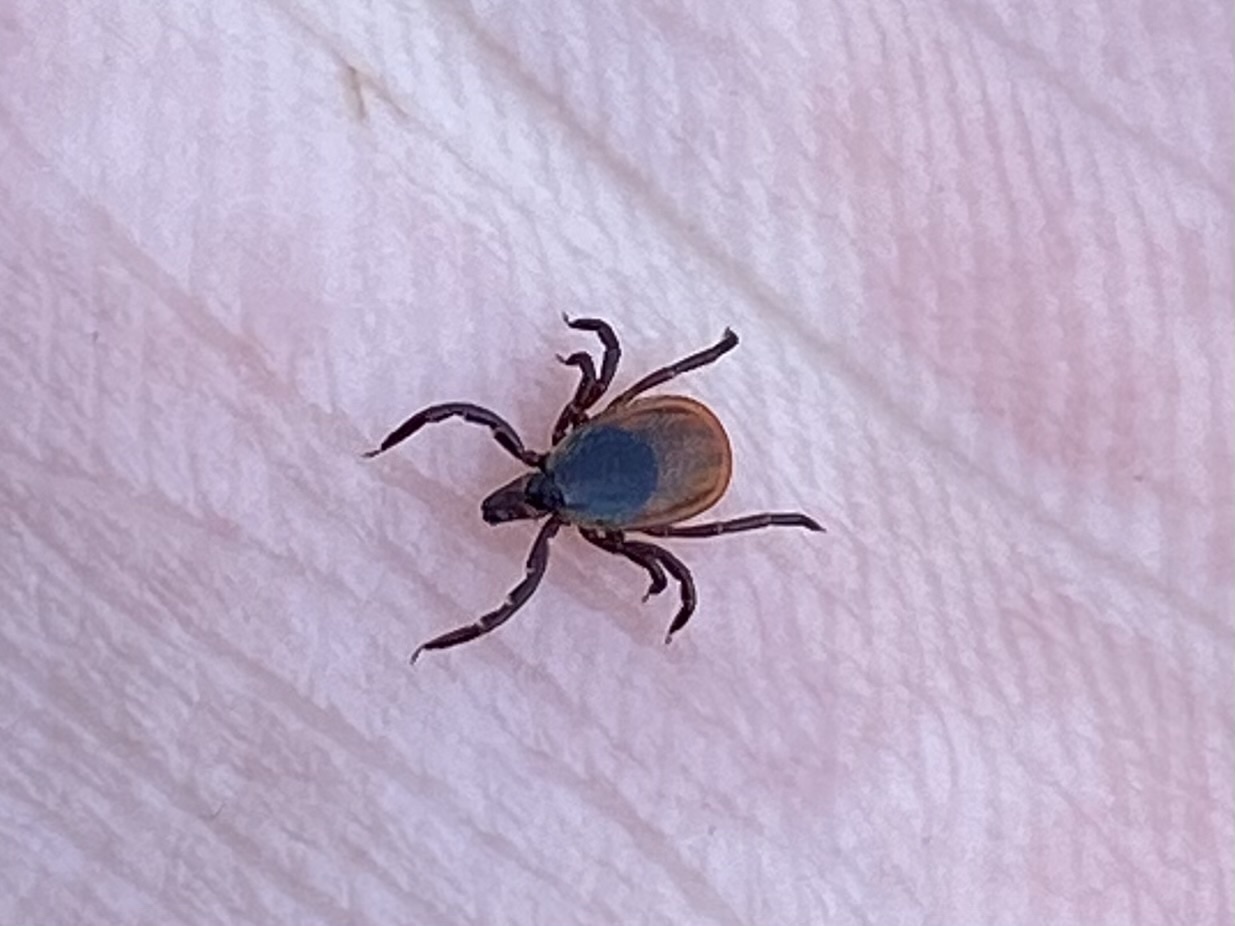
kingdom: Animalia
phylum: Arthropoda
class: Arachnida
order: Ixodida
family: Ixodidae
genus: Ixodes
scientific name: Ixodes scapularis
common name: Black legged tick
